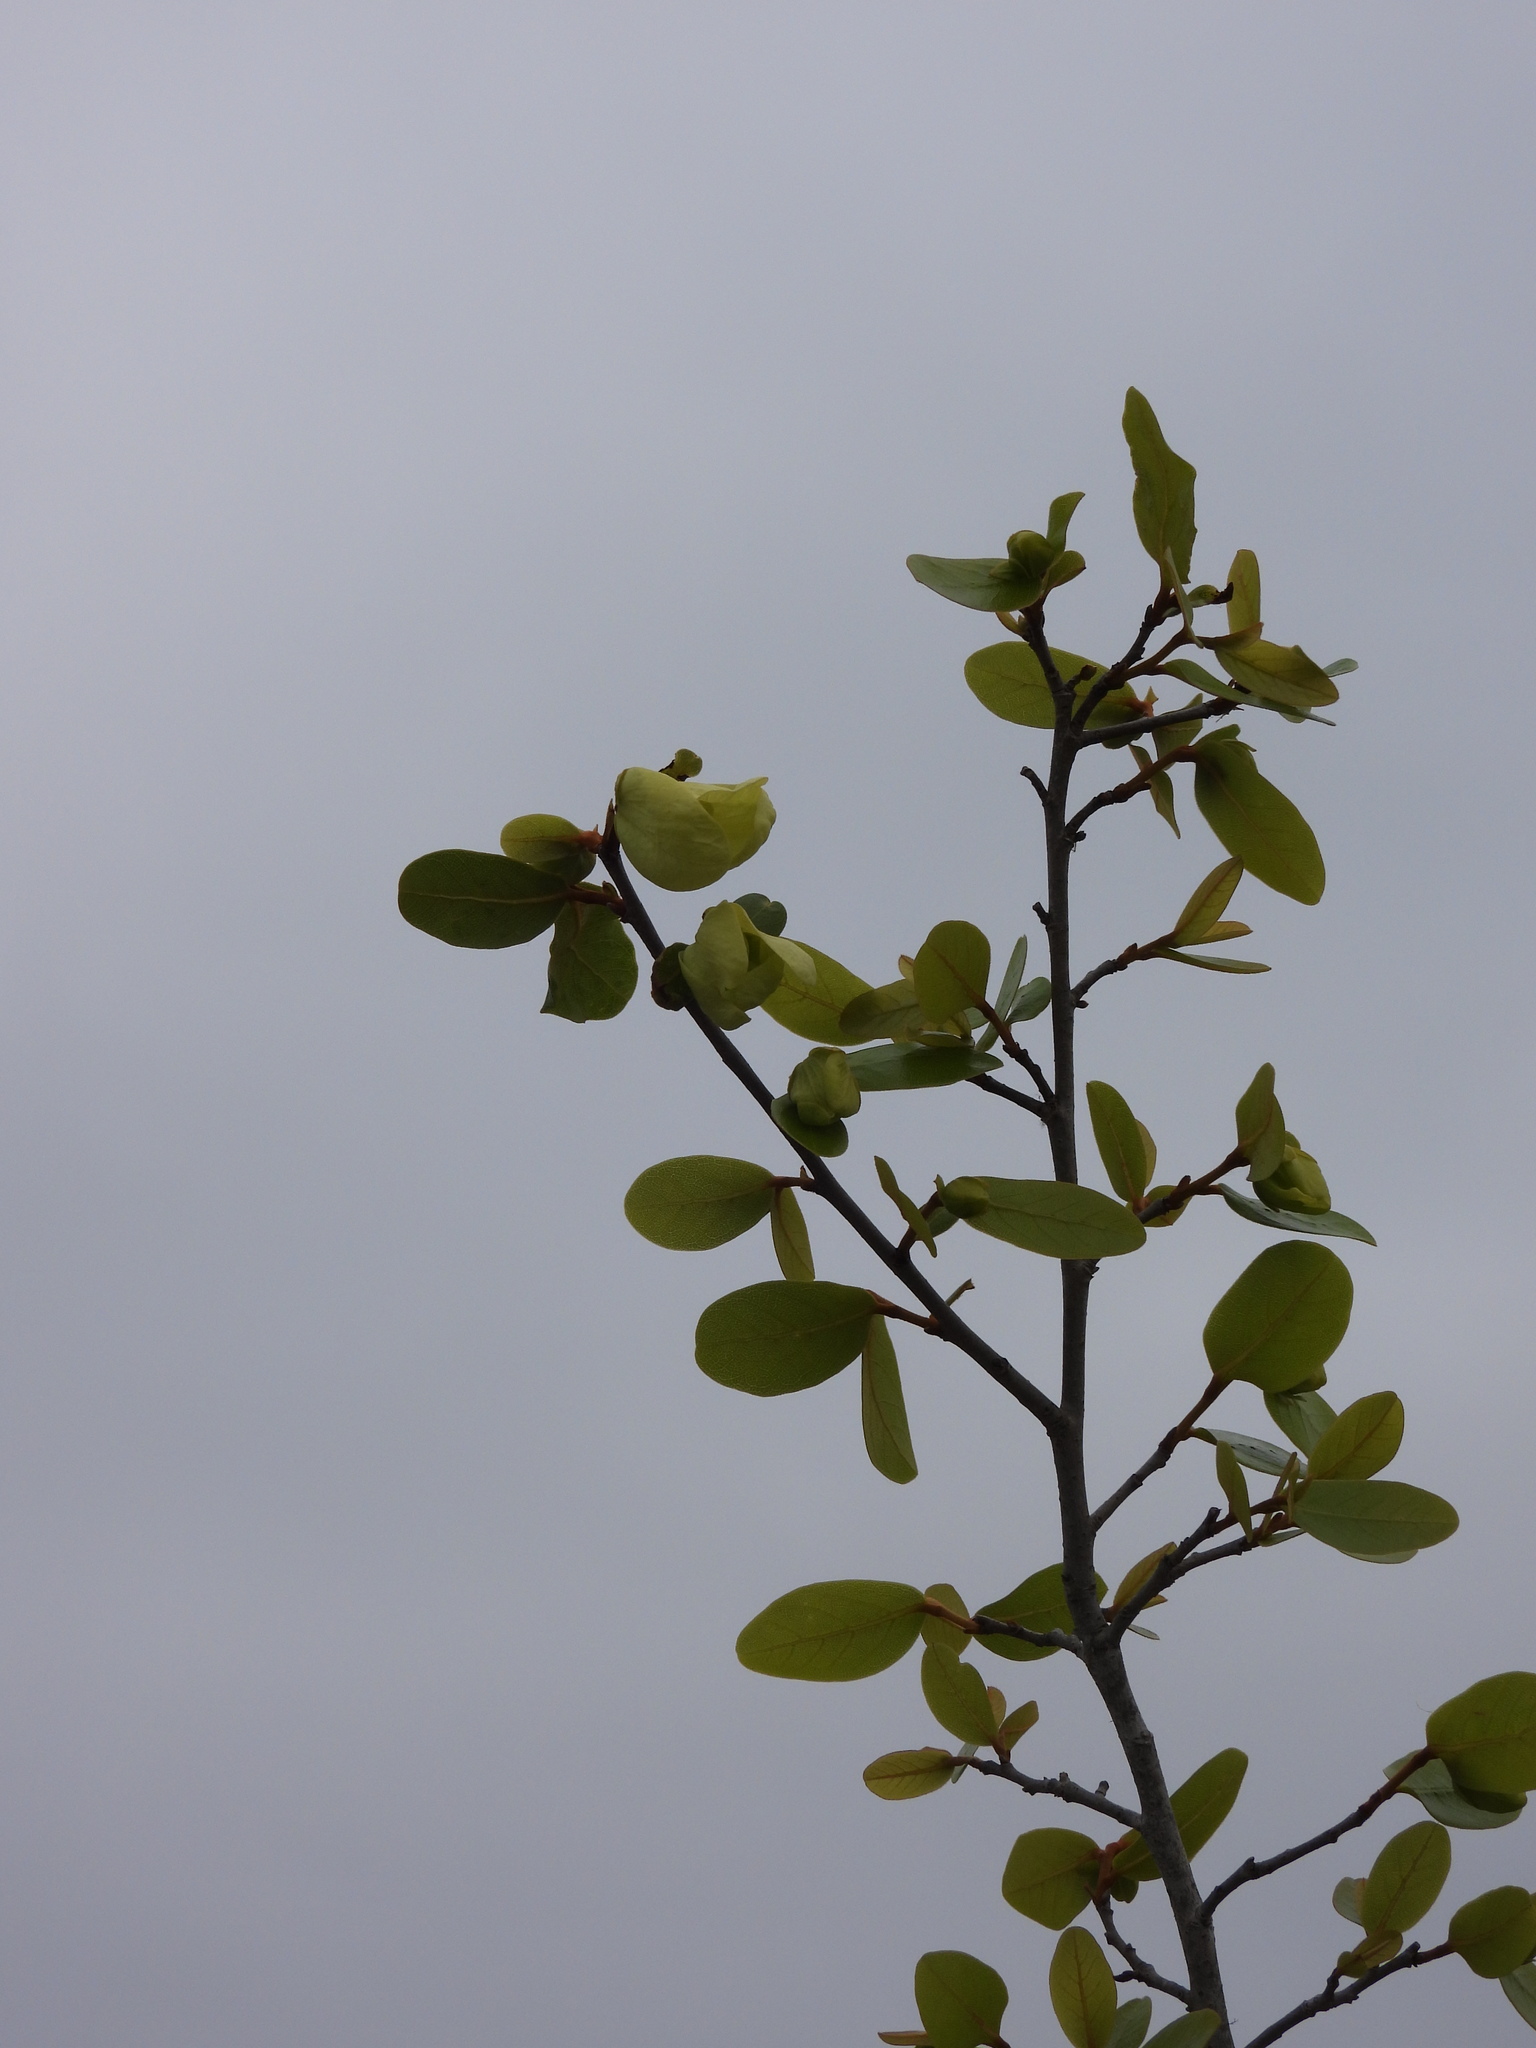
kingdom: Plantae
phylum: Tracheophyta
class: Magnoliopsida
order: Magnoliales
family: Annonaceae
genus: Asimina
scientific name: Asimina obovata
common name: Flag pawpaw
